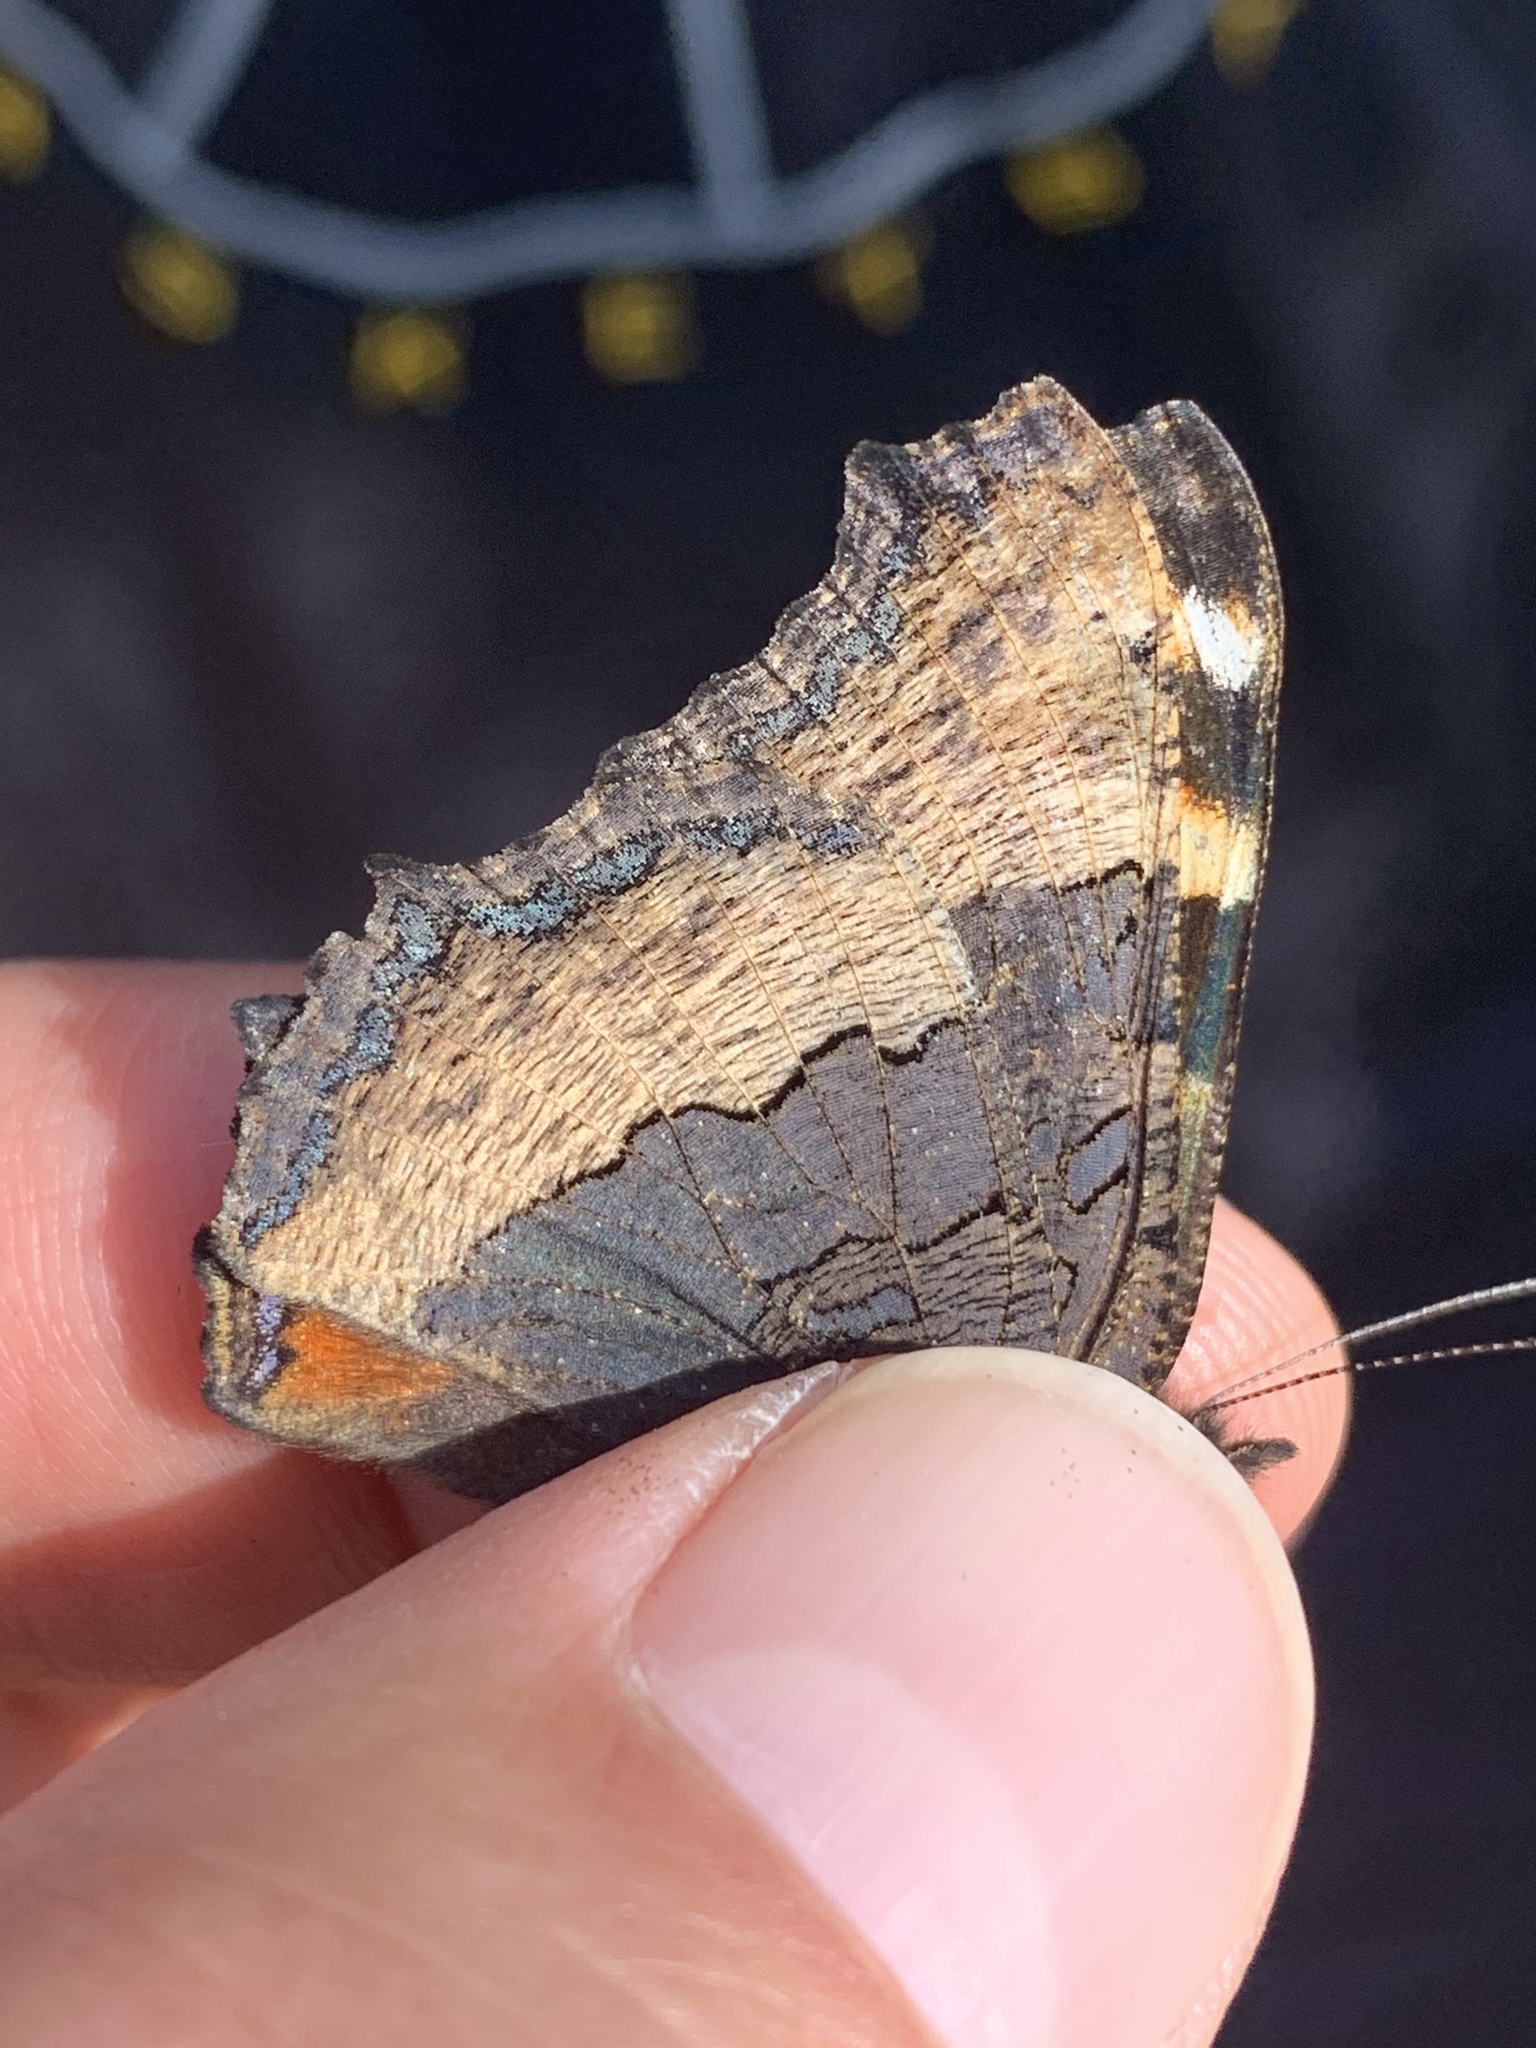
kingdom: Animalia
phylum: Arthropoda
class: Insecta
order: Lepidoptera
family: Nymphalidae
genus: Aglais
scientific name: Aglais milberti
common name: Milbert's tortoiseshell
